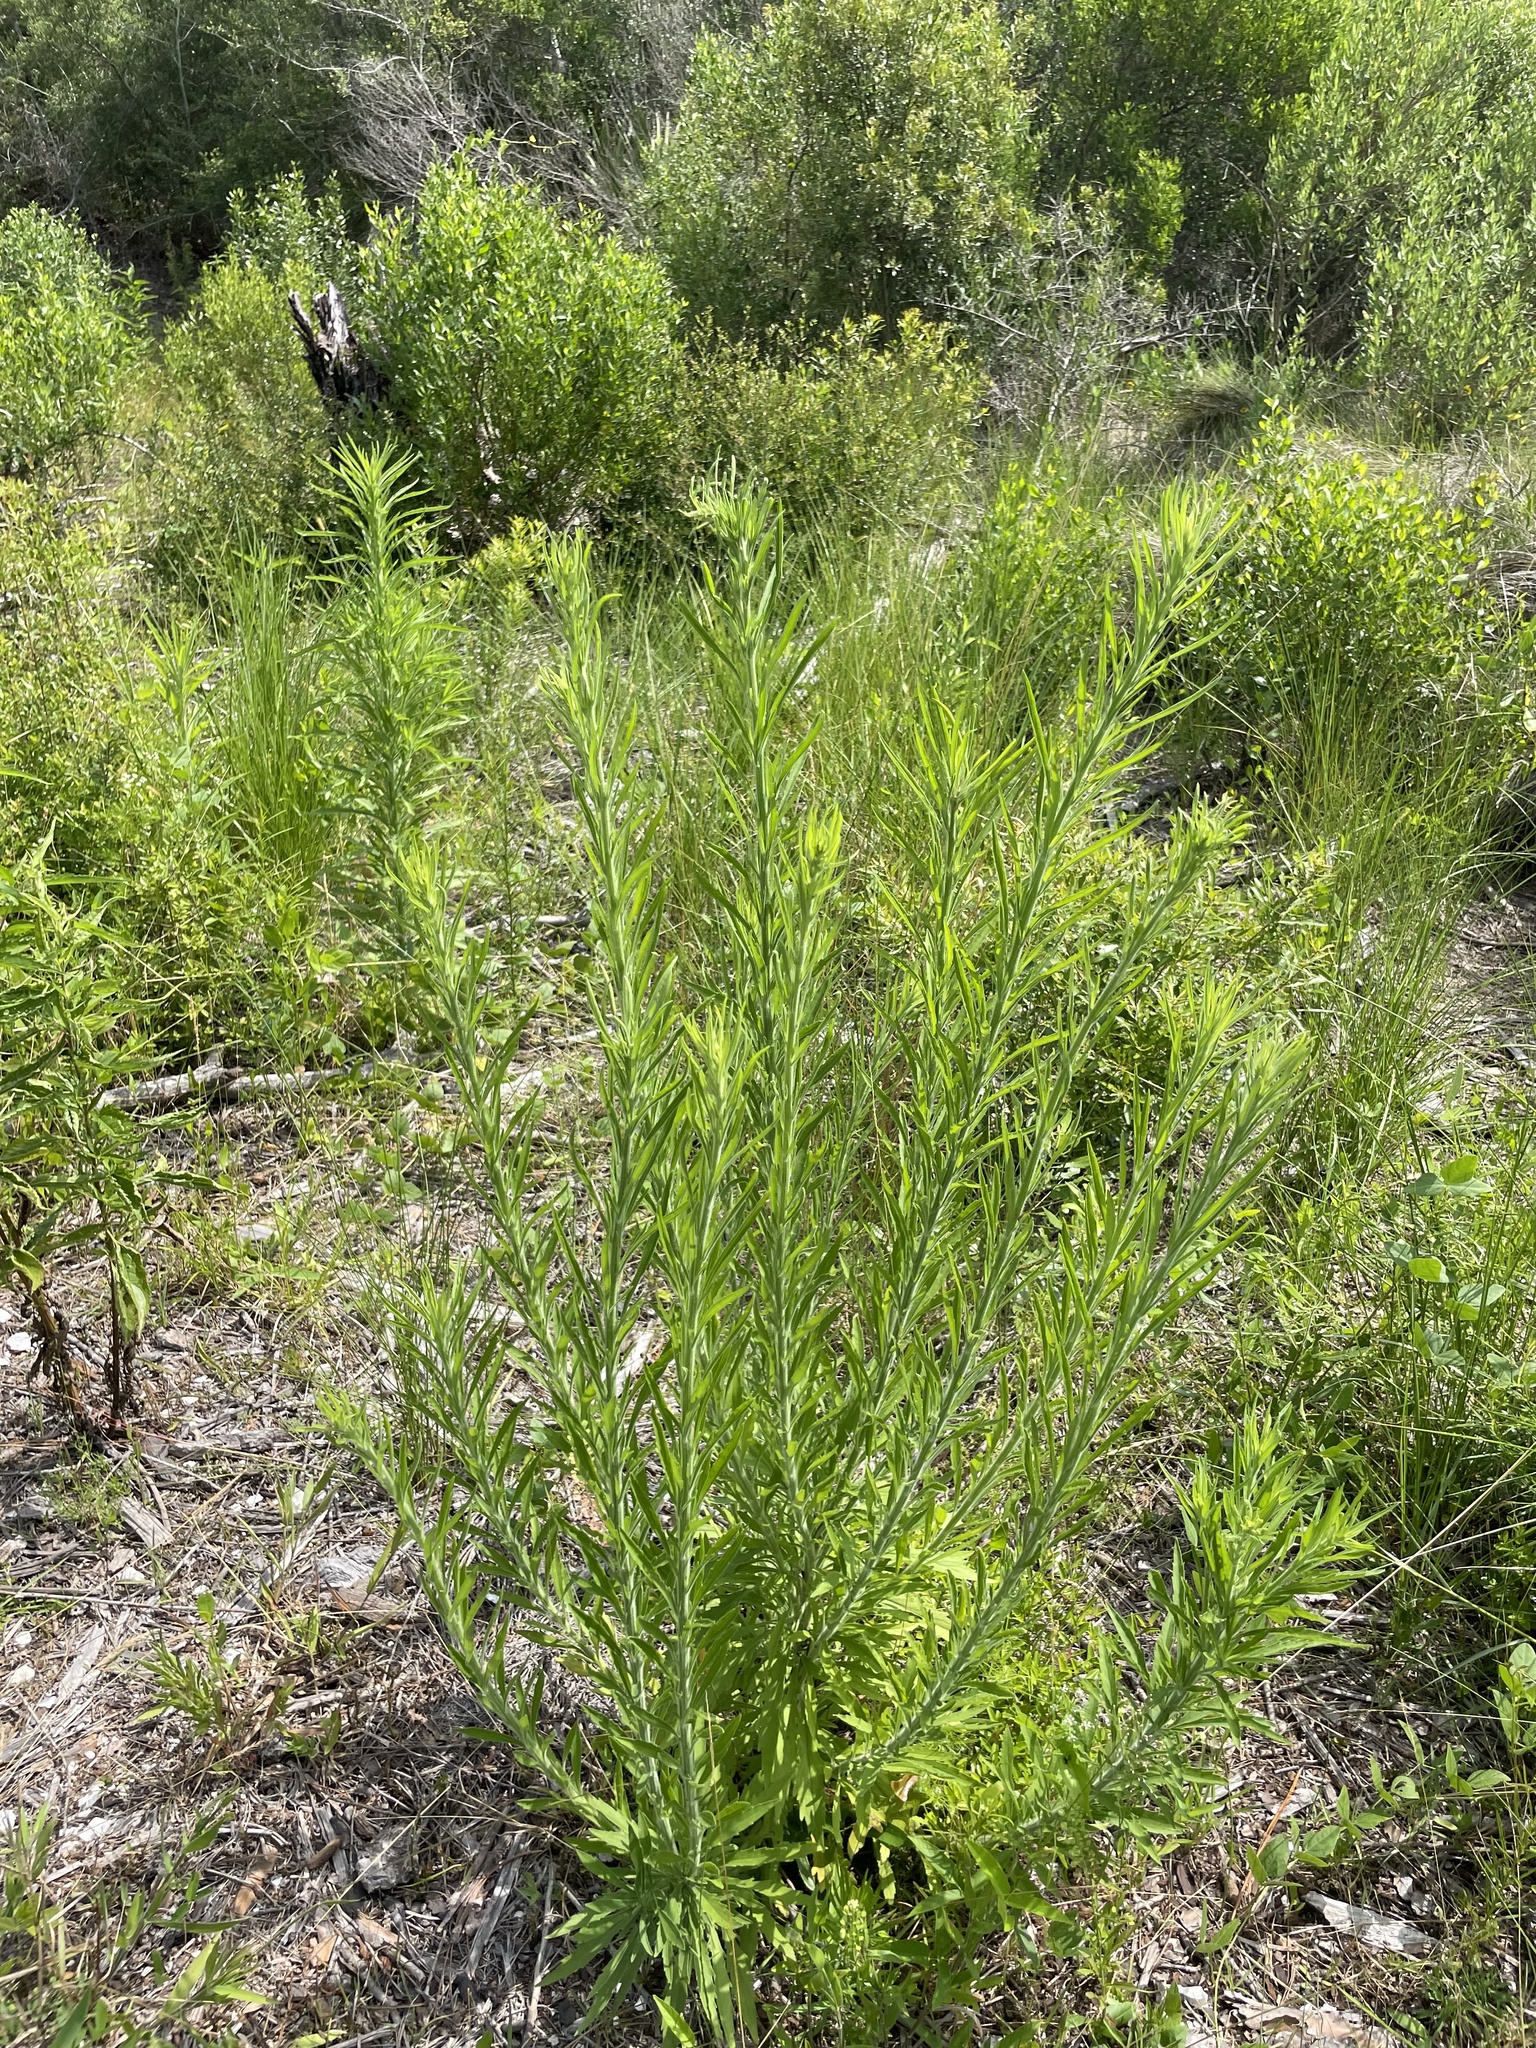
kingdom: Plantae
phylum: Tracheophyta
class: Magnoliopsida
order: Asterales
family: Asteraceae
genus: Erigeron
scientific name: Erigeron bonariensis
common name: Argentine fleabane
